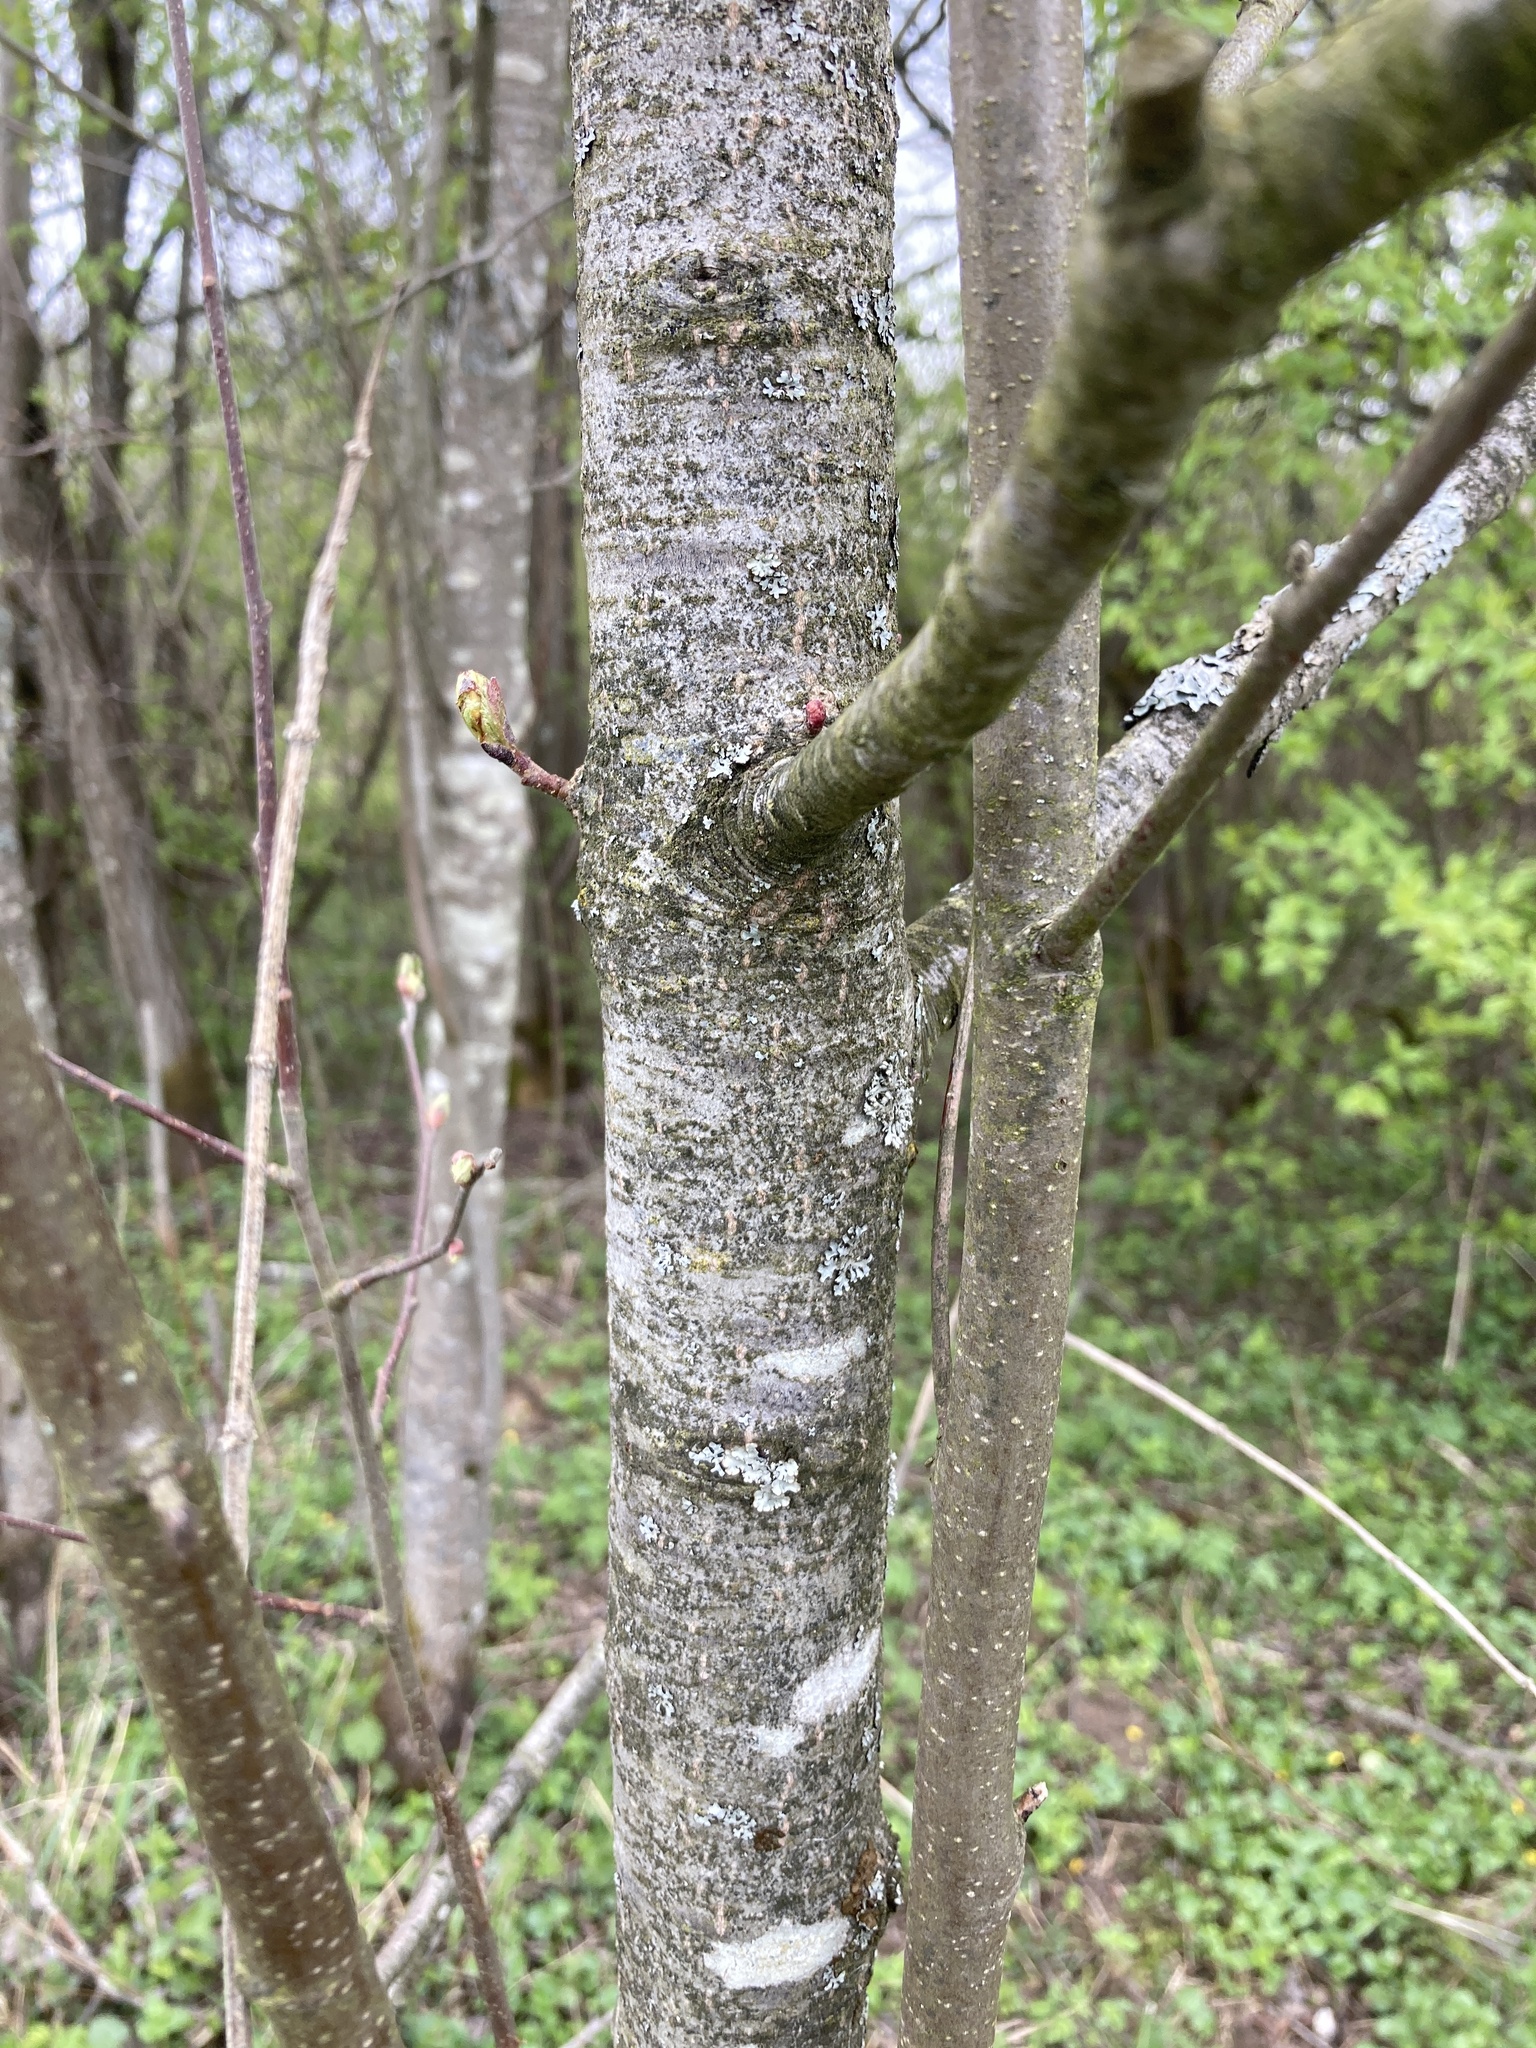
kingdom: Plantae
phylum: Tracheophyta
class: Magnoliopsida
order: Fagales
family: Betulaceae
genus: Alnus
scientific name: Alnus incana
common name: Grey alder
